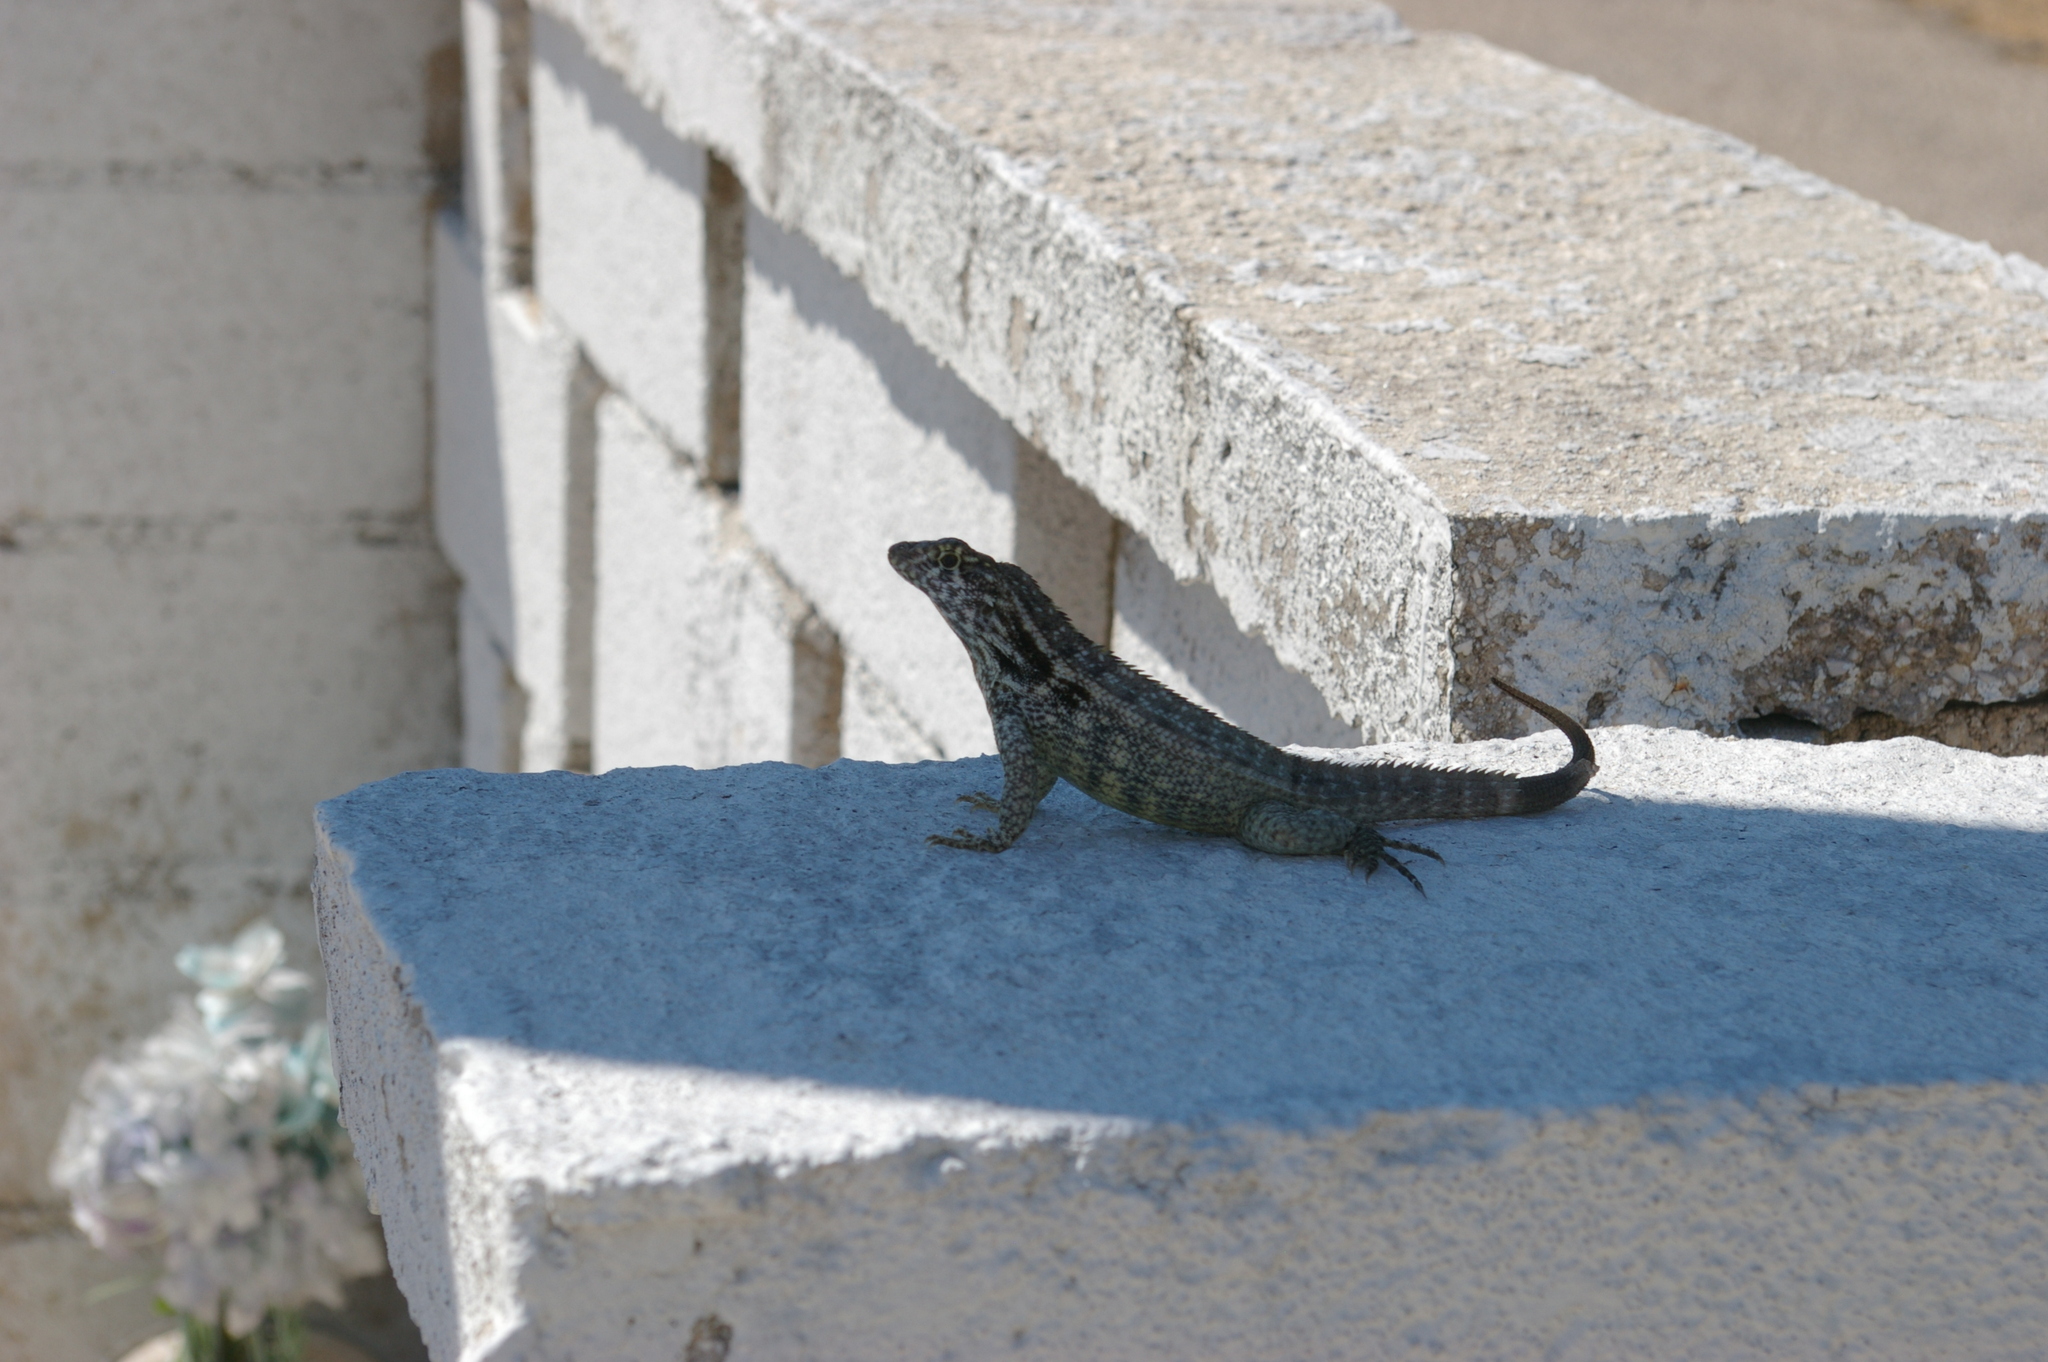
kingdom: Animalia
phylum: Chordata
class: Squamata
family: Leiocephalidae
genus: Leiocephalus
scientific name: Leiocephalus varius
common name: Cayman curlytail
